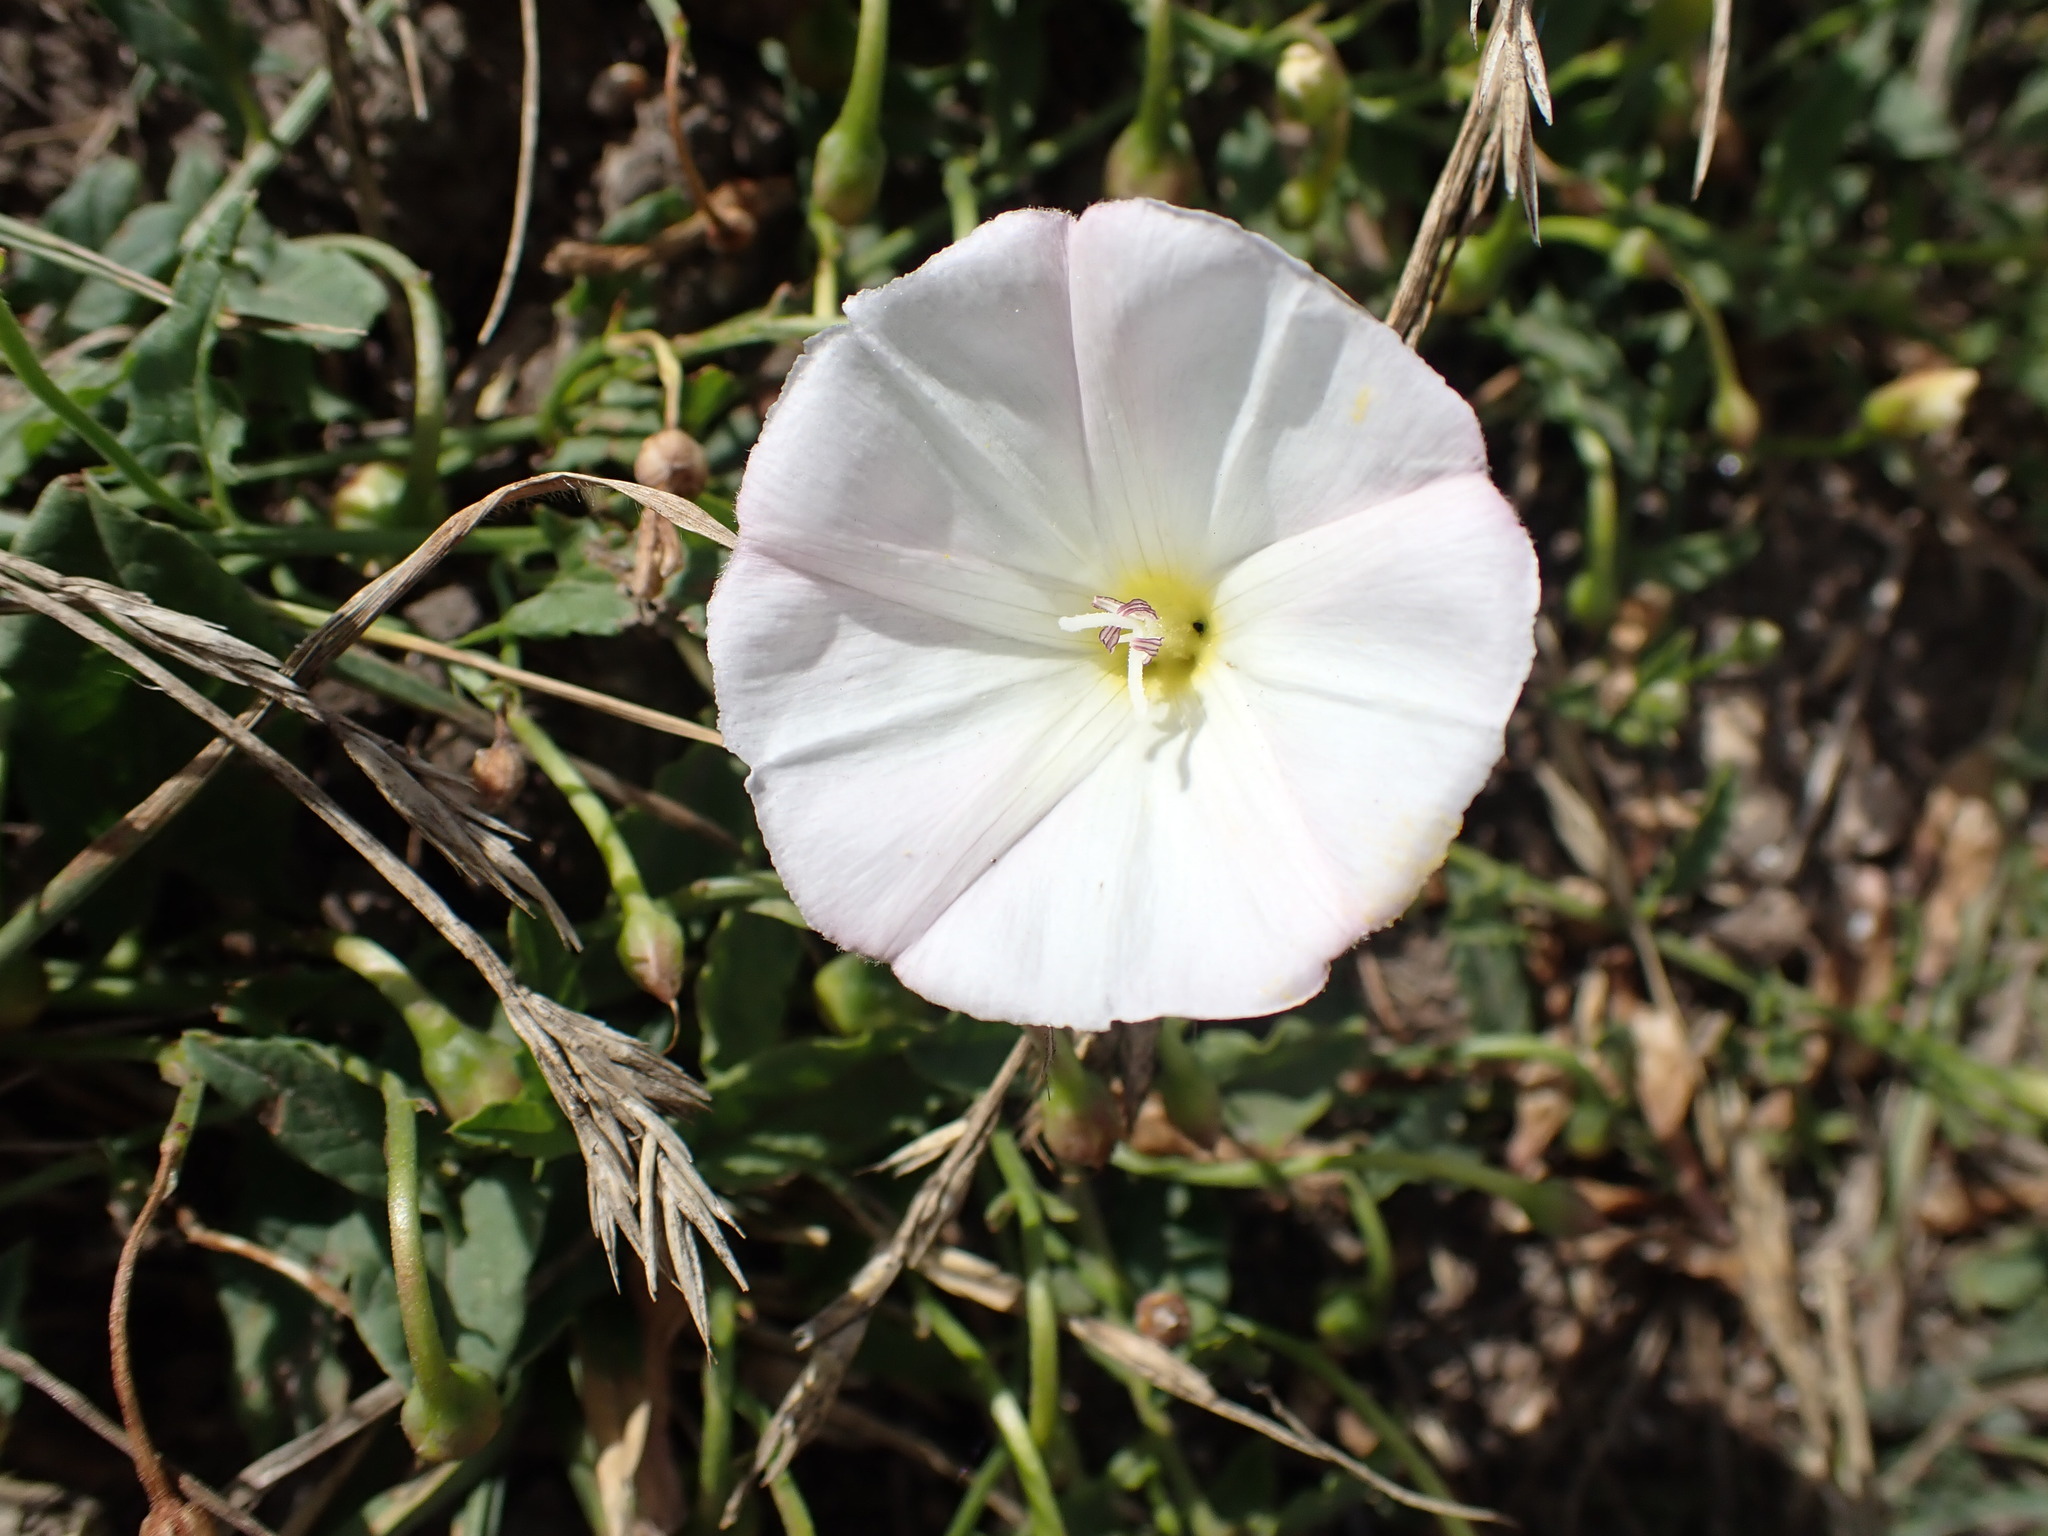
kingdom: Plantae
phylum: Tracheophyta
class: Magnoliopsida
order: Solanales
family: Convolvulaceae
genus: Convolvulus
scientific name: Convolvulus arvensis
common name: Field bindweed
